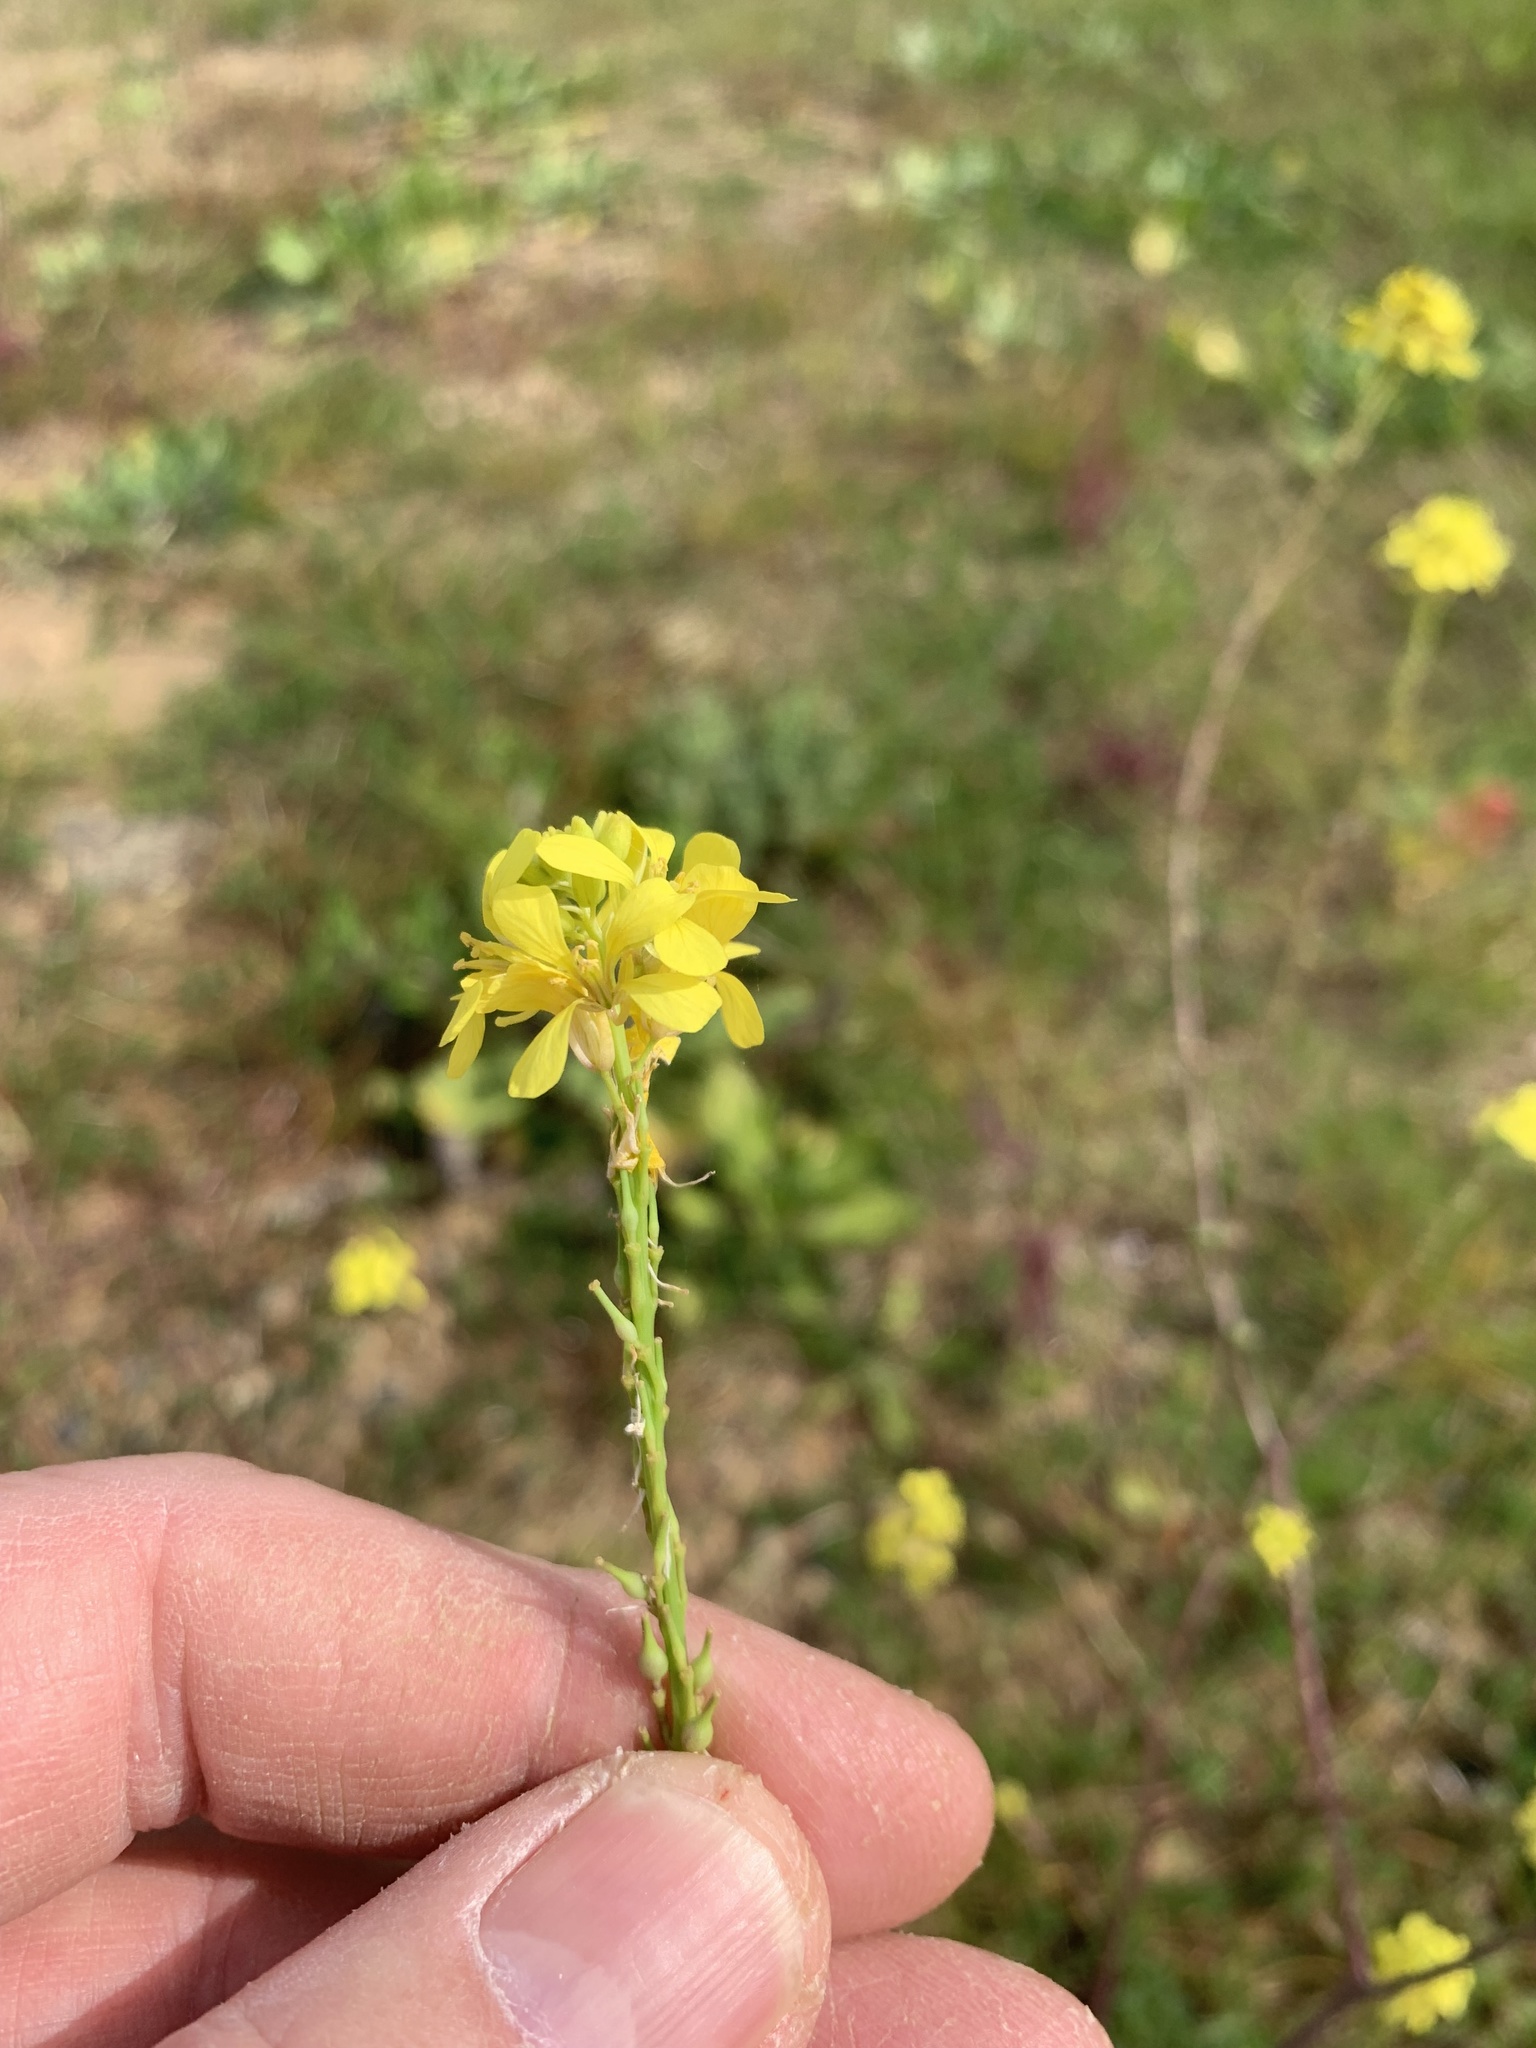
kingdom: Plantae
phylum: Tracheophyta
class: Magnoliopsida
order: Brassicales
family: Brassicaceae
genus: Rapistrum
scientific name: Rapistrum rugosum
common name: Annual bastardcabbage
